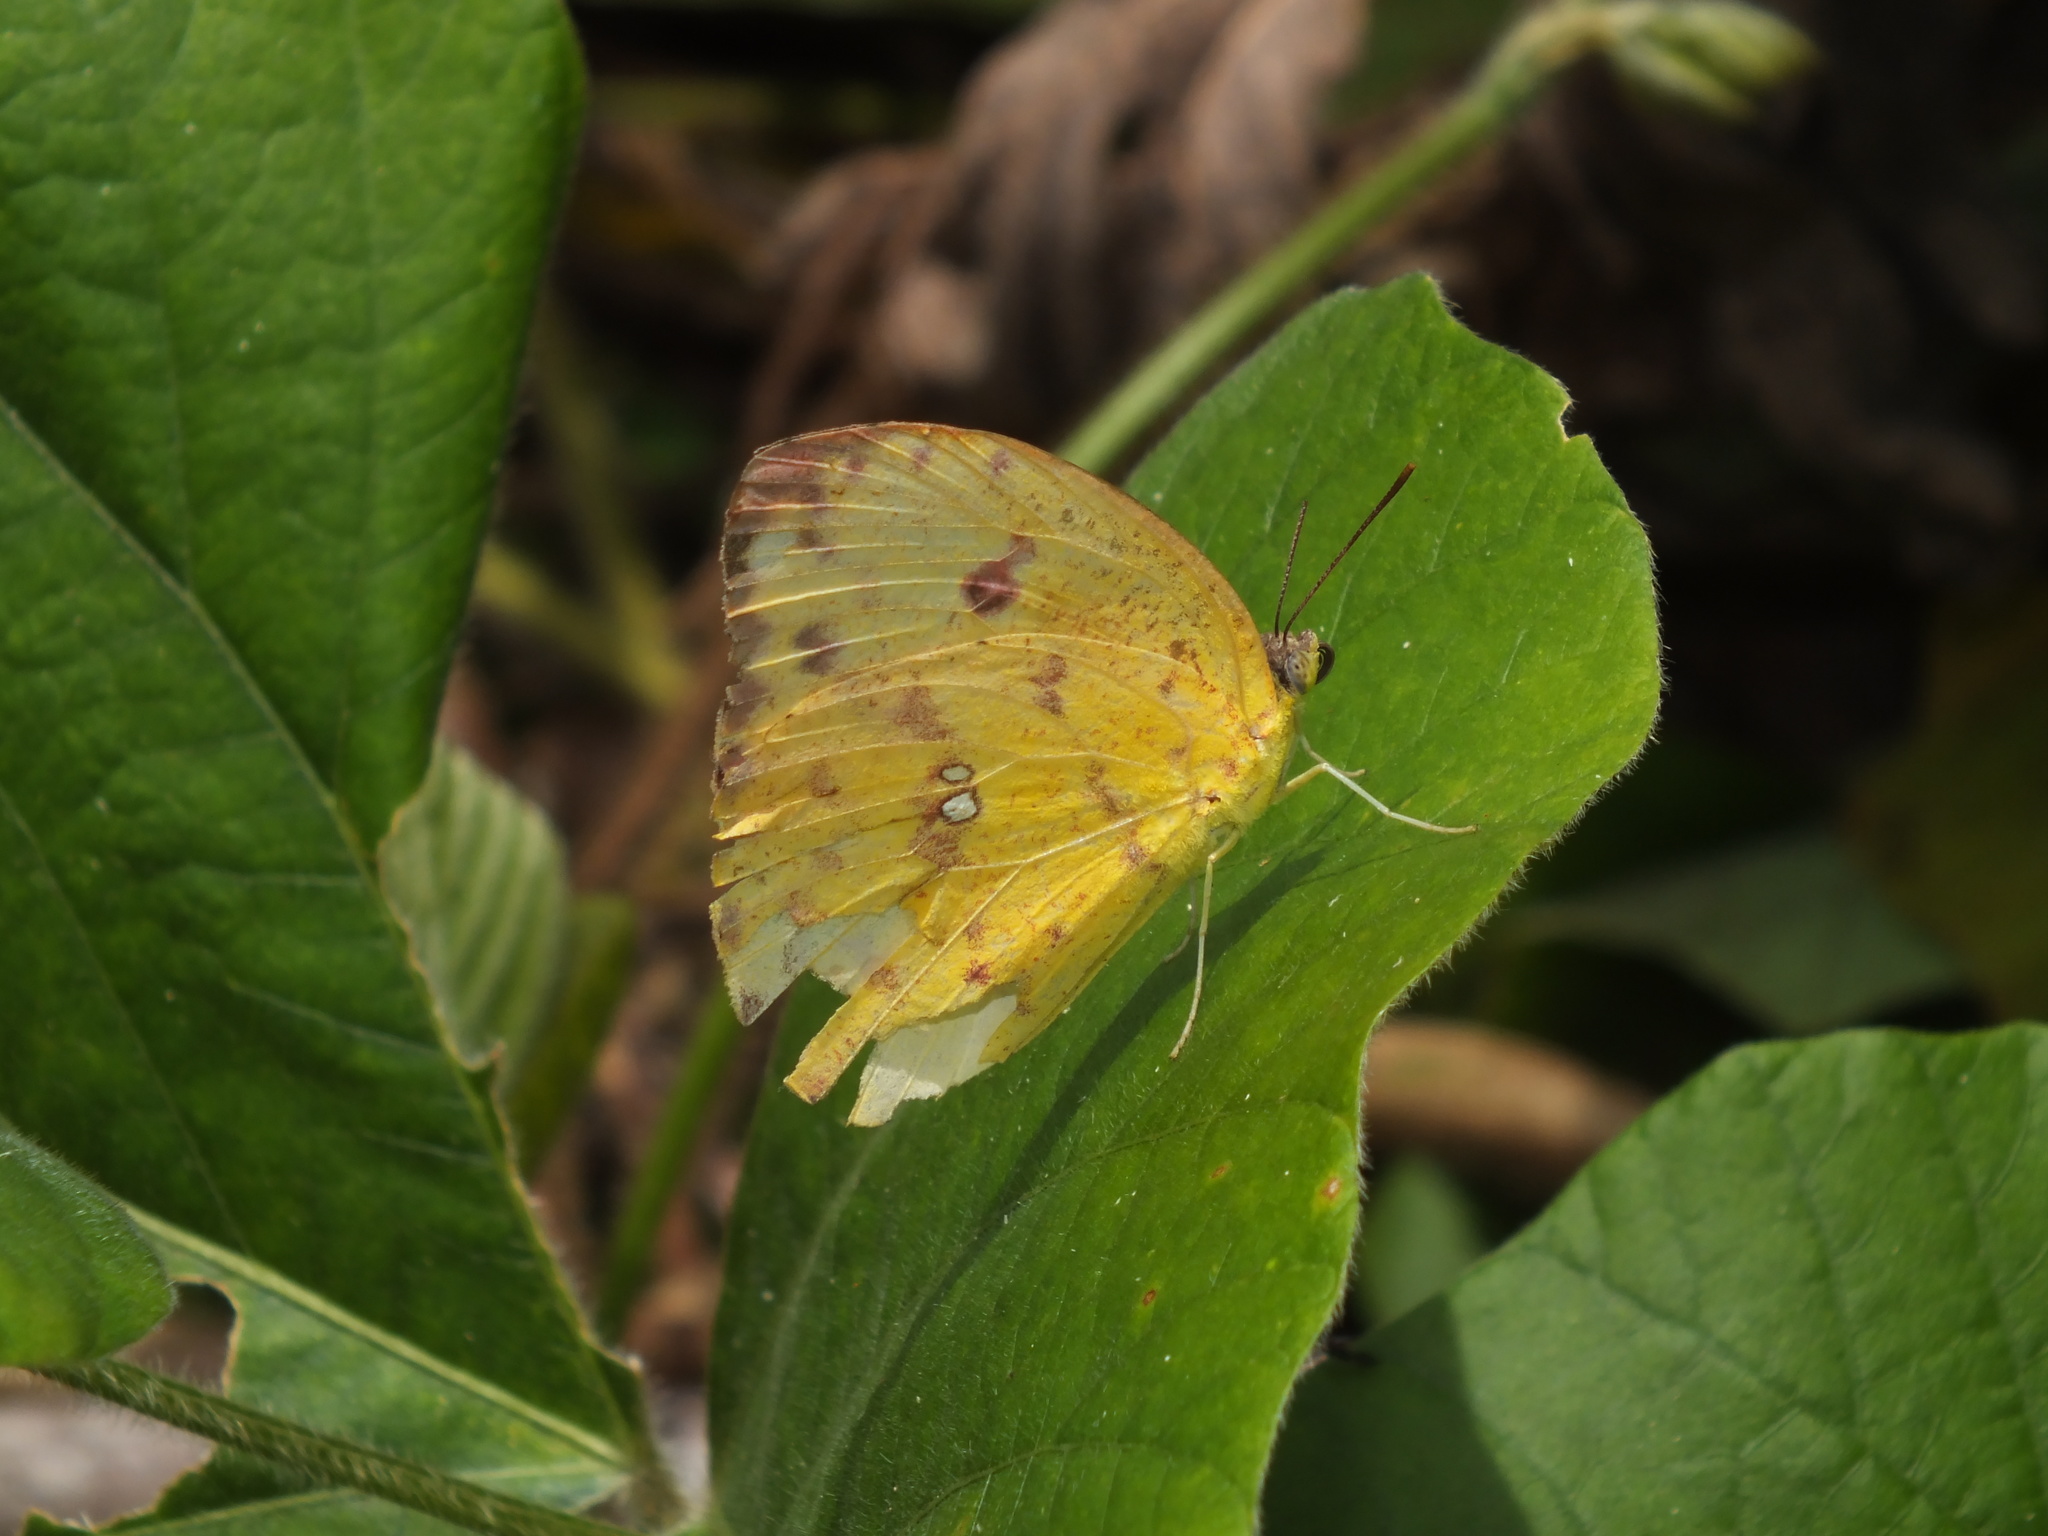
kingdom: Animalia
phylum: Arthropoda
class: Insecta
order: Lepidoptera
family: Pieridae
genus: Phoebis
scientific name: Phoebis argante
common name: Apricot sulphur
